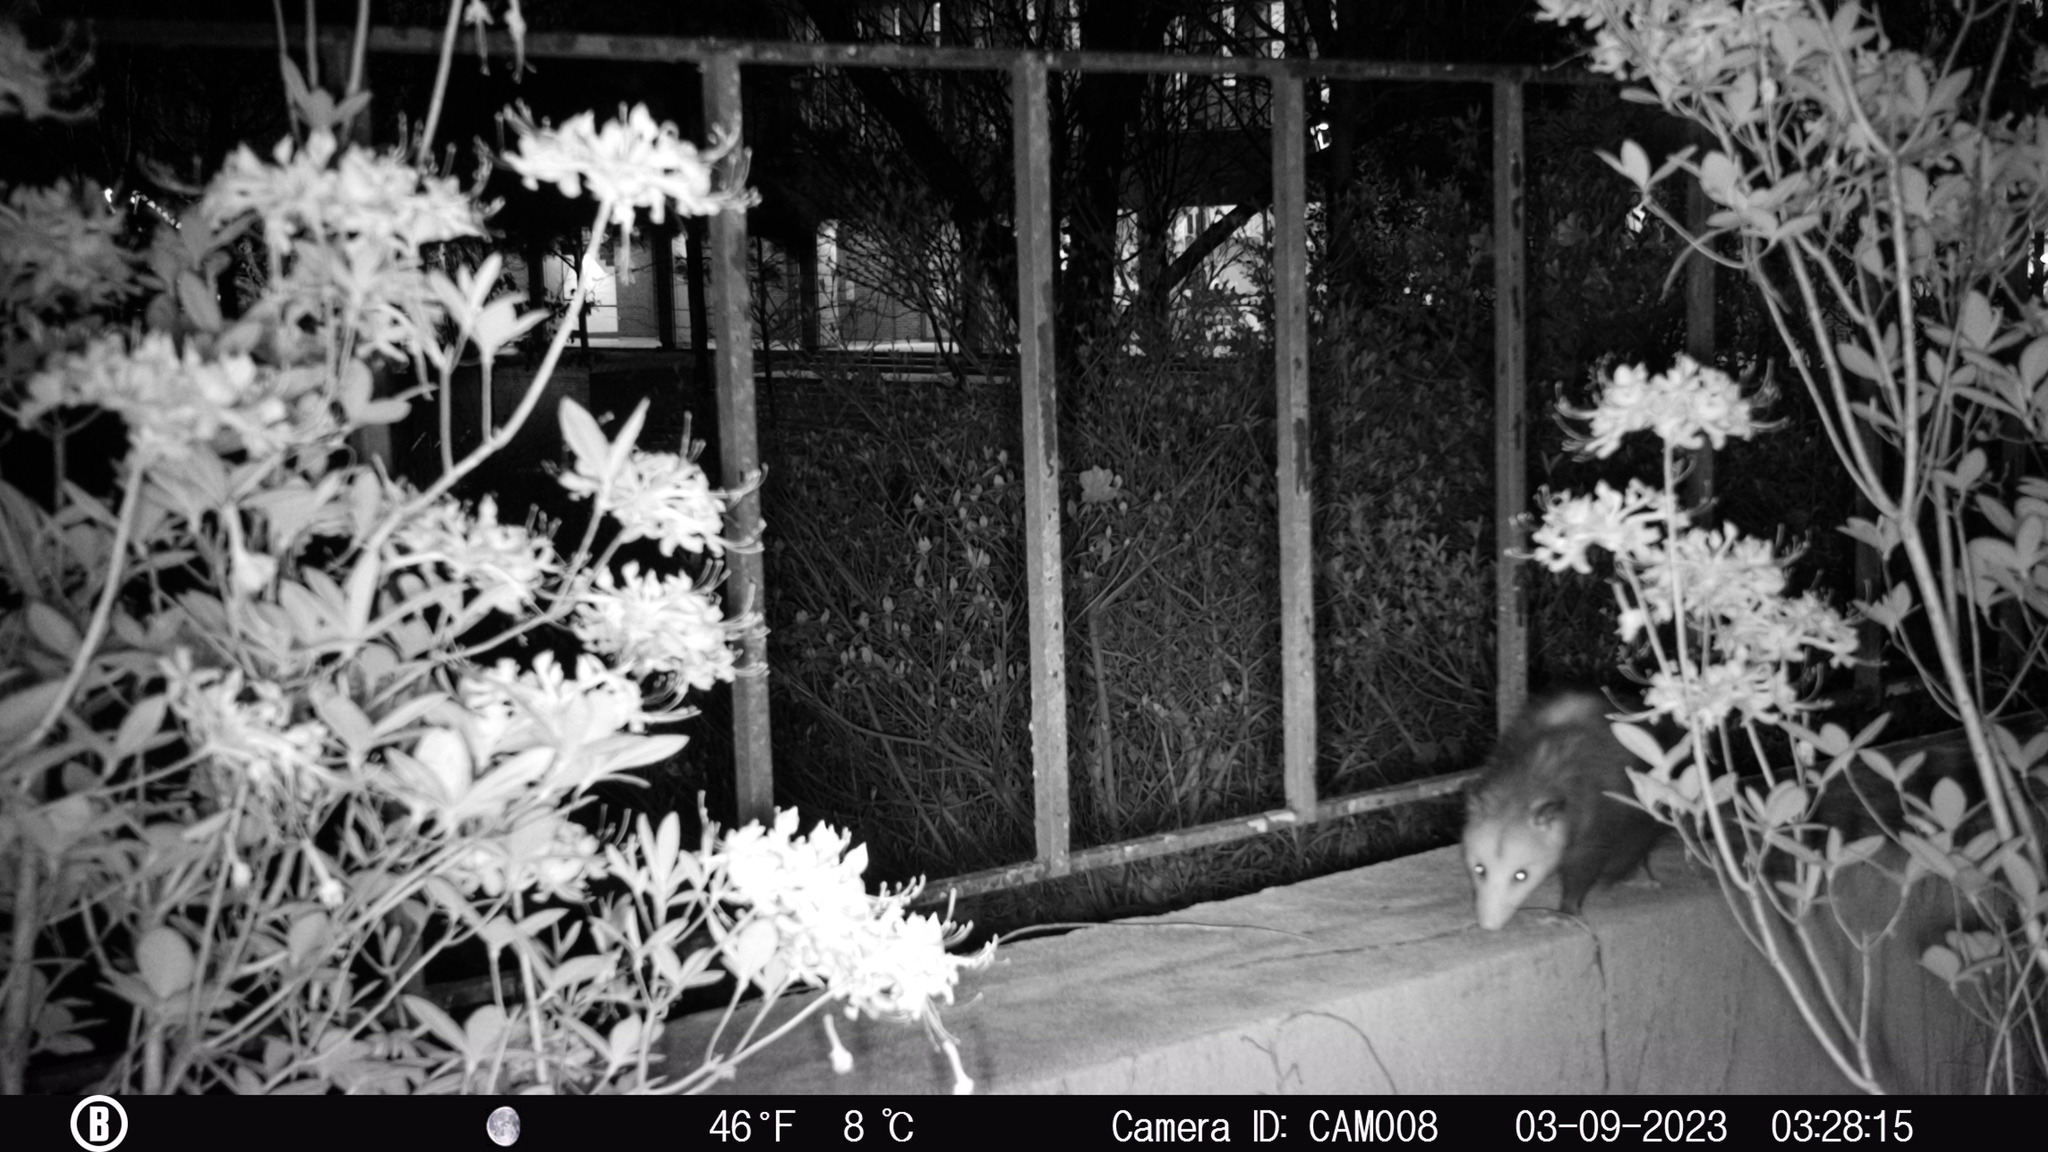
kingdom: Animalia
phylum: Chordata
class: Mammalia
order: Didelphimorphia
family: Didelphidae
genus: Didelphis
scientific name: Didelphis virginiana
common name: Virginia opossum
